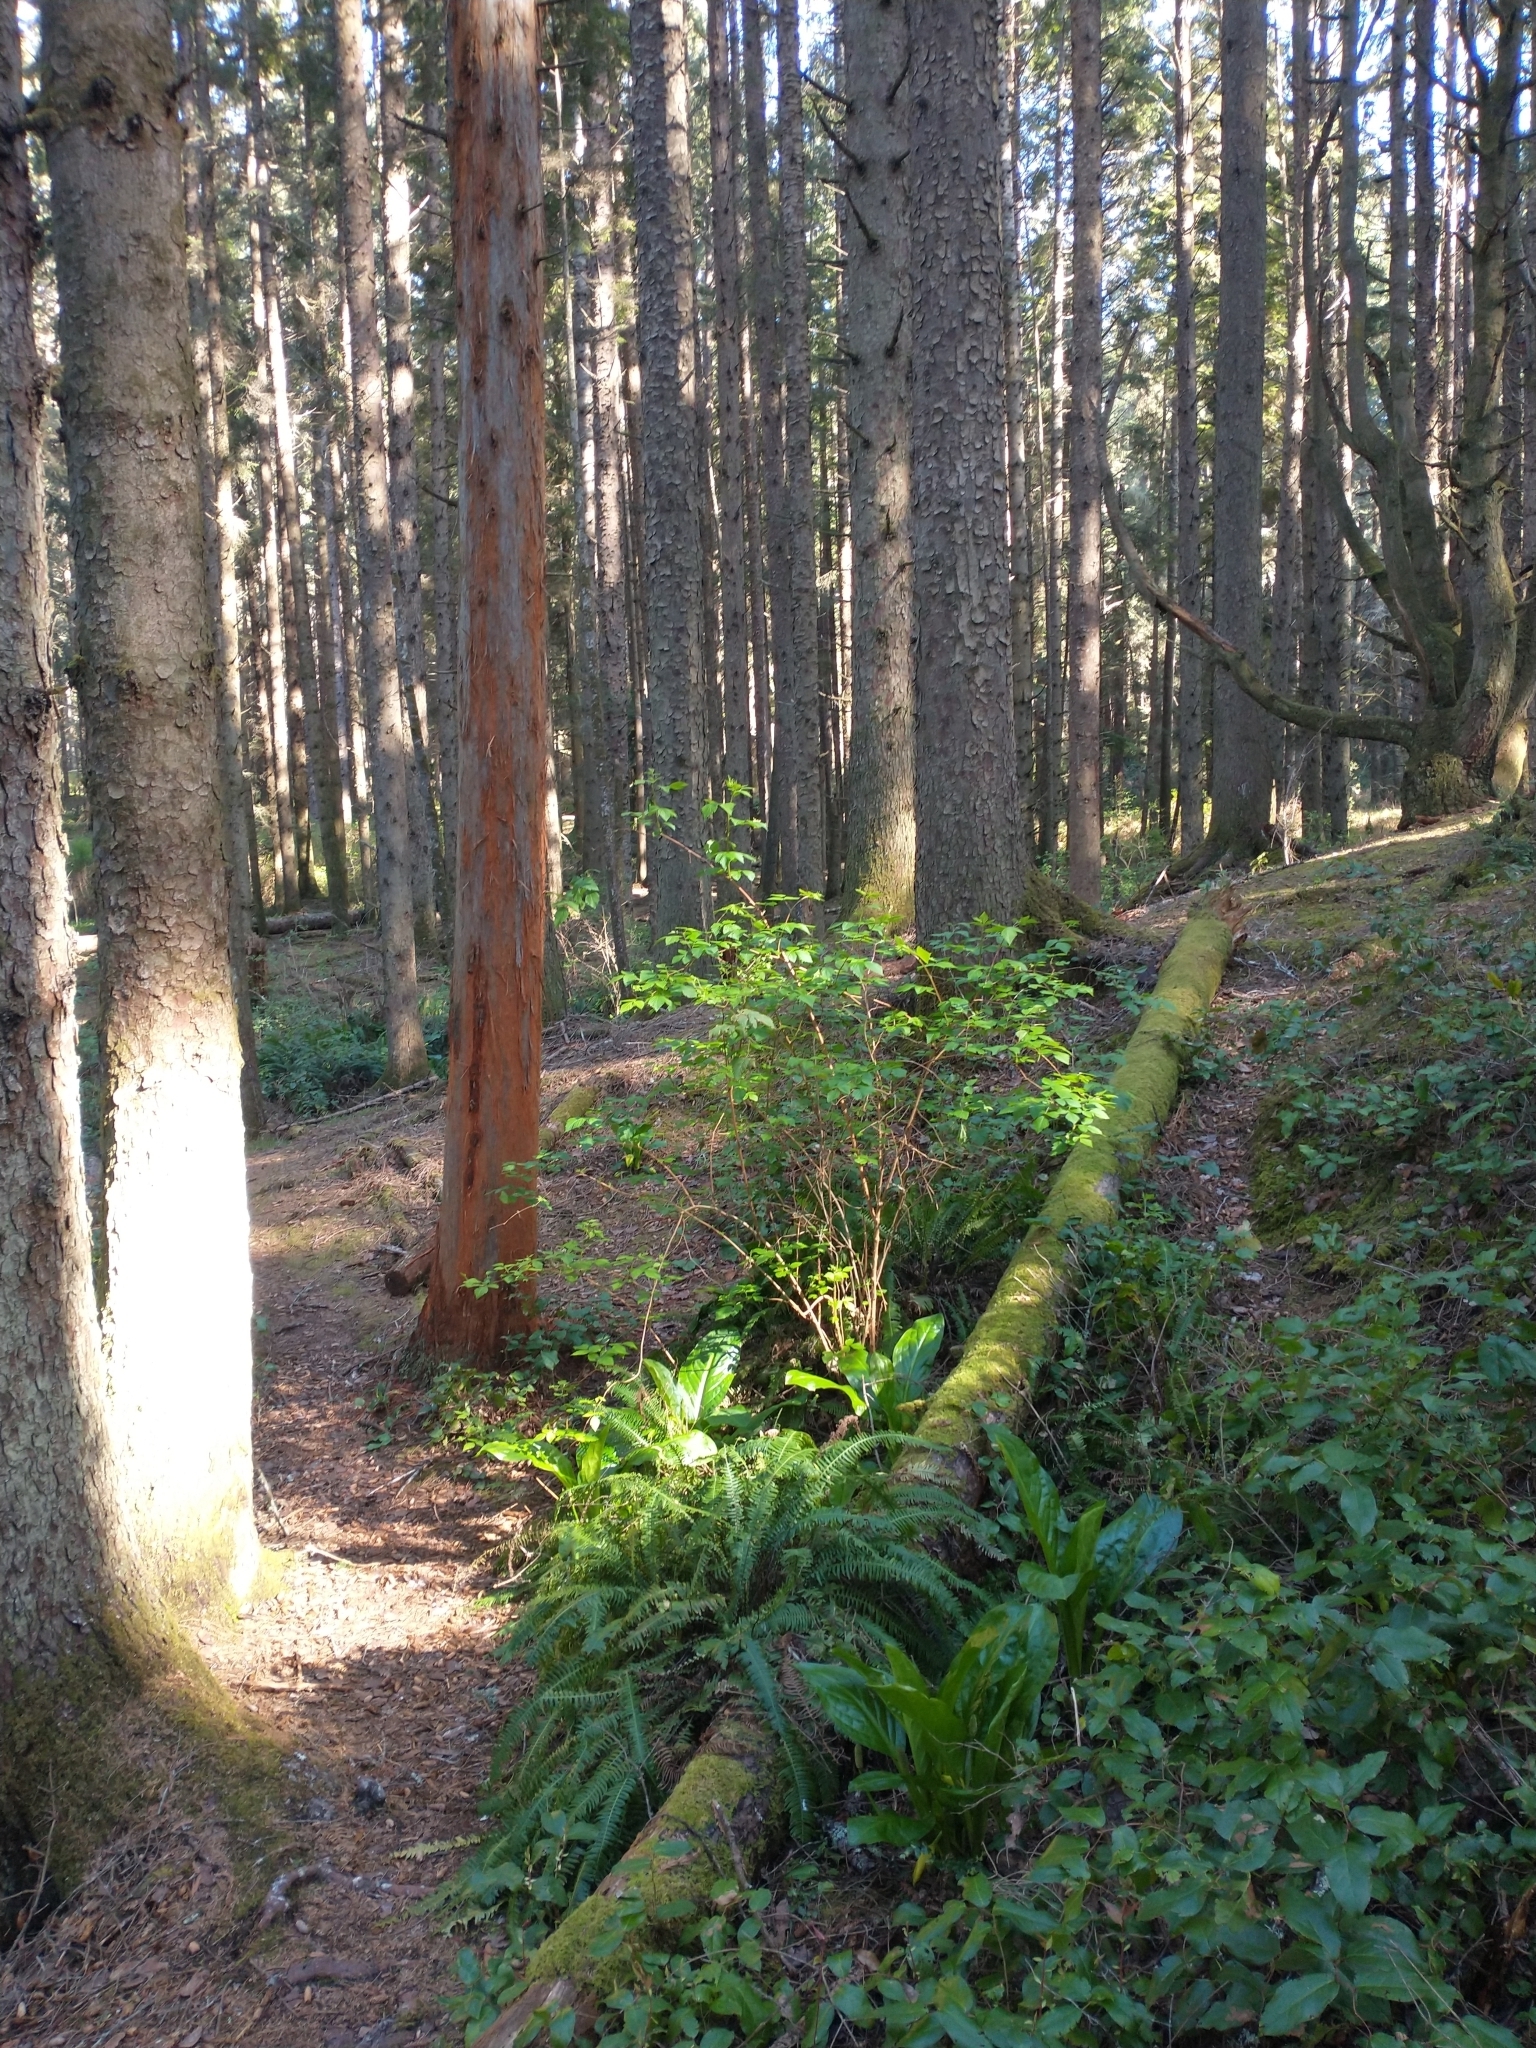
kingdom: Plantae
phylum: Tracheophyta
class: Liliopsida
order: Alismatales
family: Araceae
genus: Lysichiton
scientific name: Lysichiton americanus
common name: American skunk cabbage
